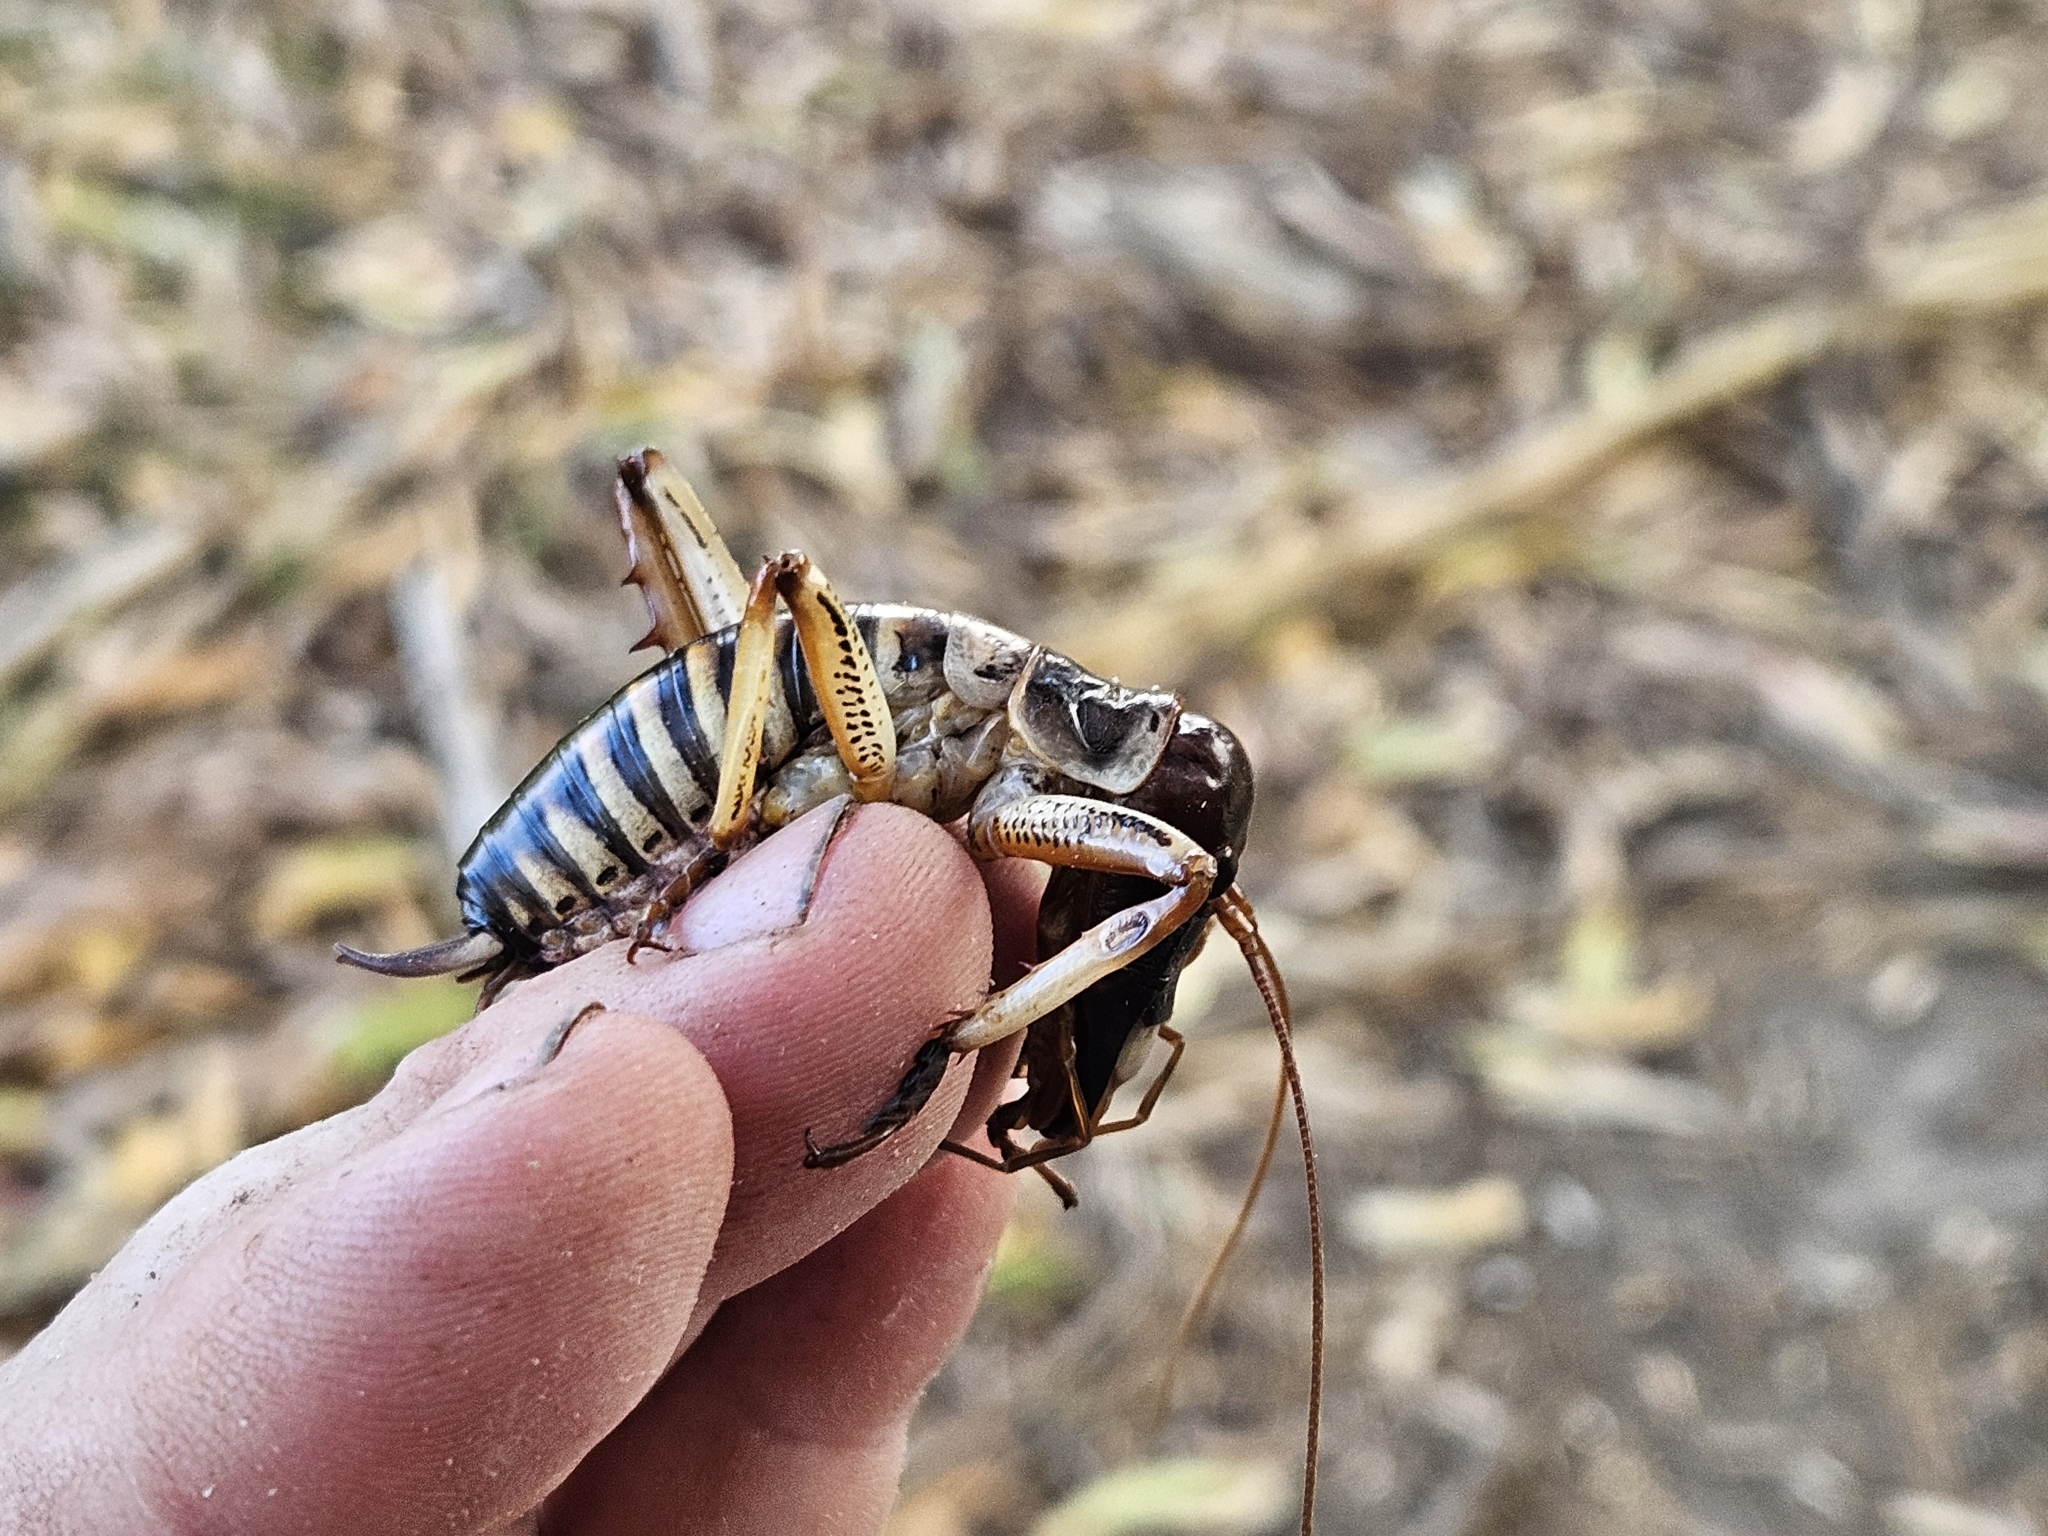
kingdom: Animalia
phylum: Arthropoda
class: Insecta
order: Orthoptera
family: Anostostomatidae
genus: Hemideina
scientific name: Hemideina crassidens
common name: Wellington tree weta
